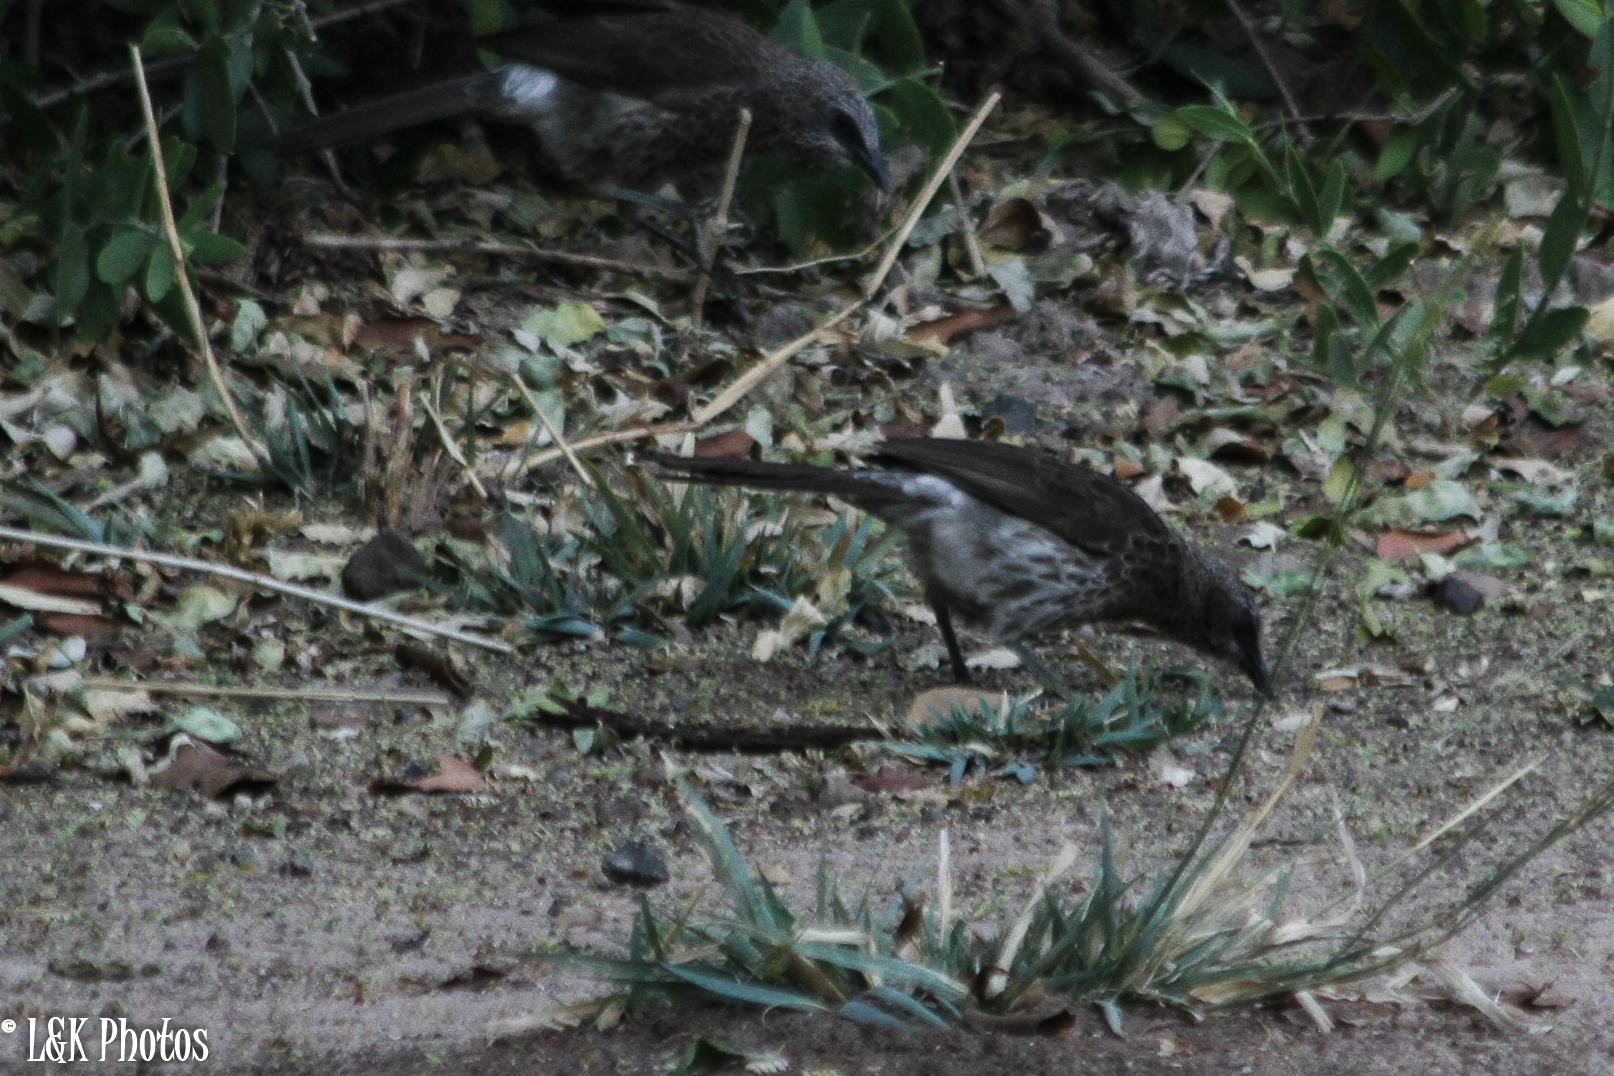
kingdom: Animalia
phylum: Chordata
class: Aves
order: Passeriformes
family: Leiothrichidae
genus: Turdoides
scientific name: Turdoides hartlaubii
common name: Hartlaub's babbler
